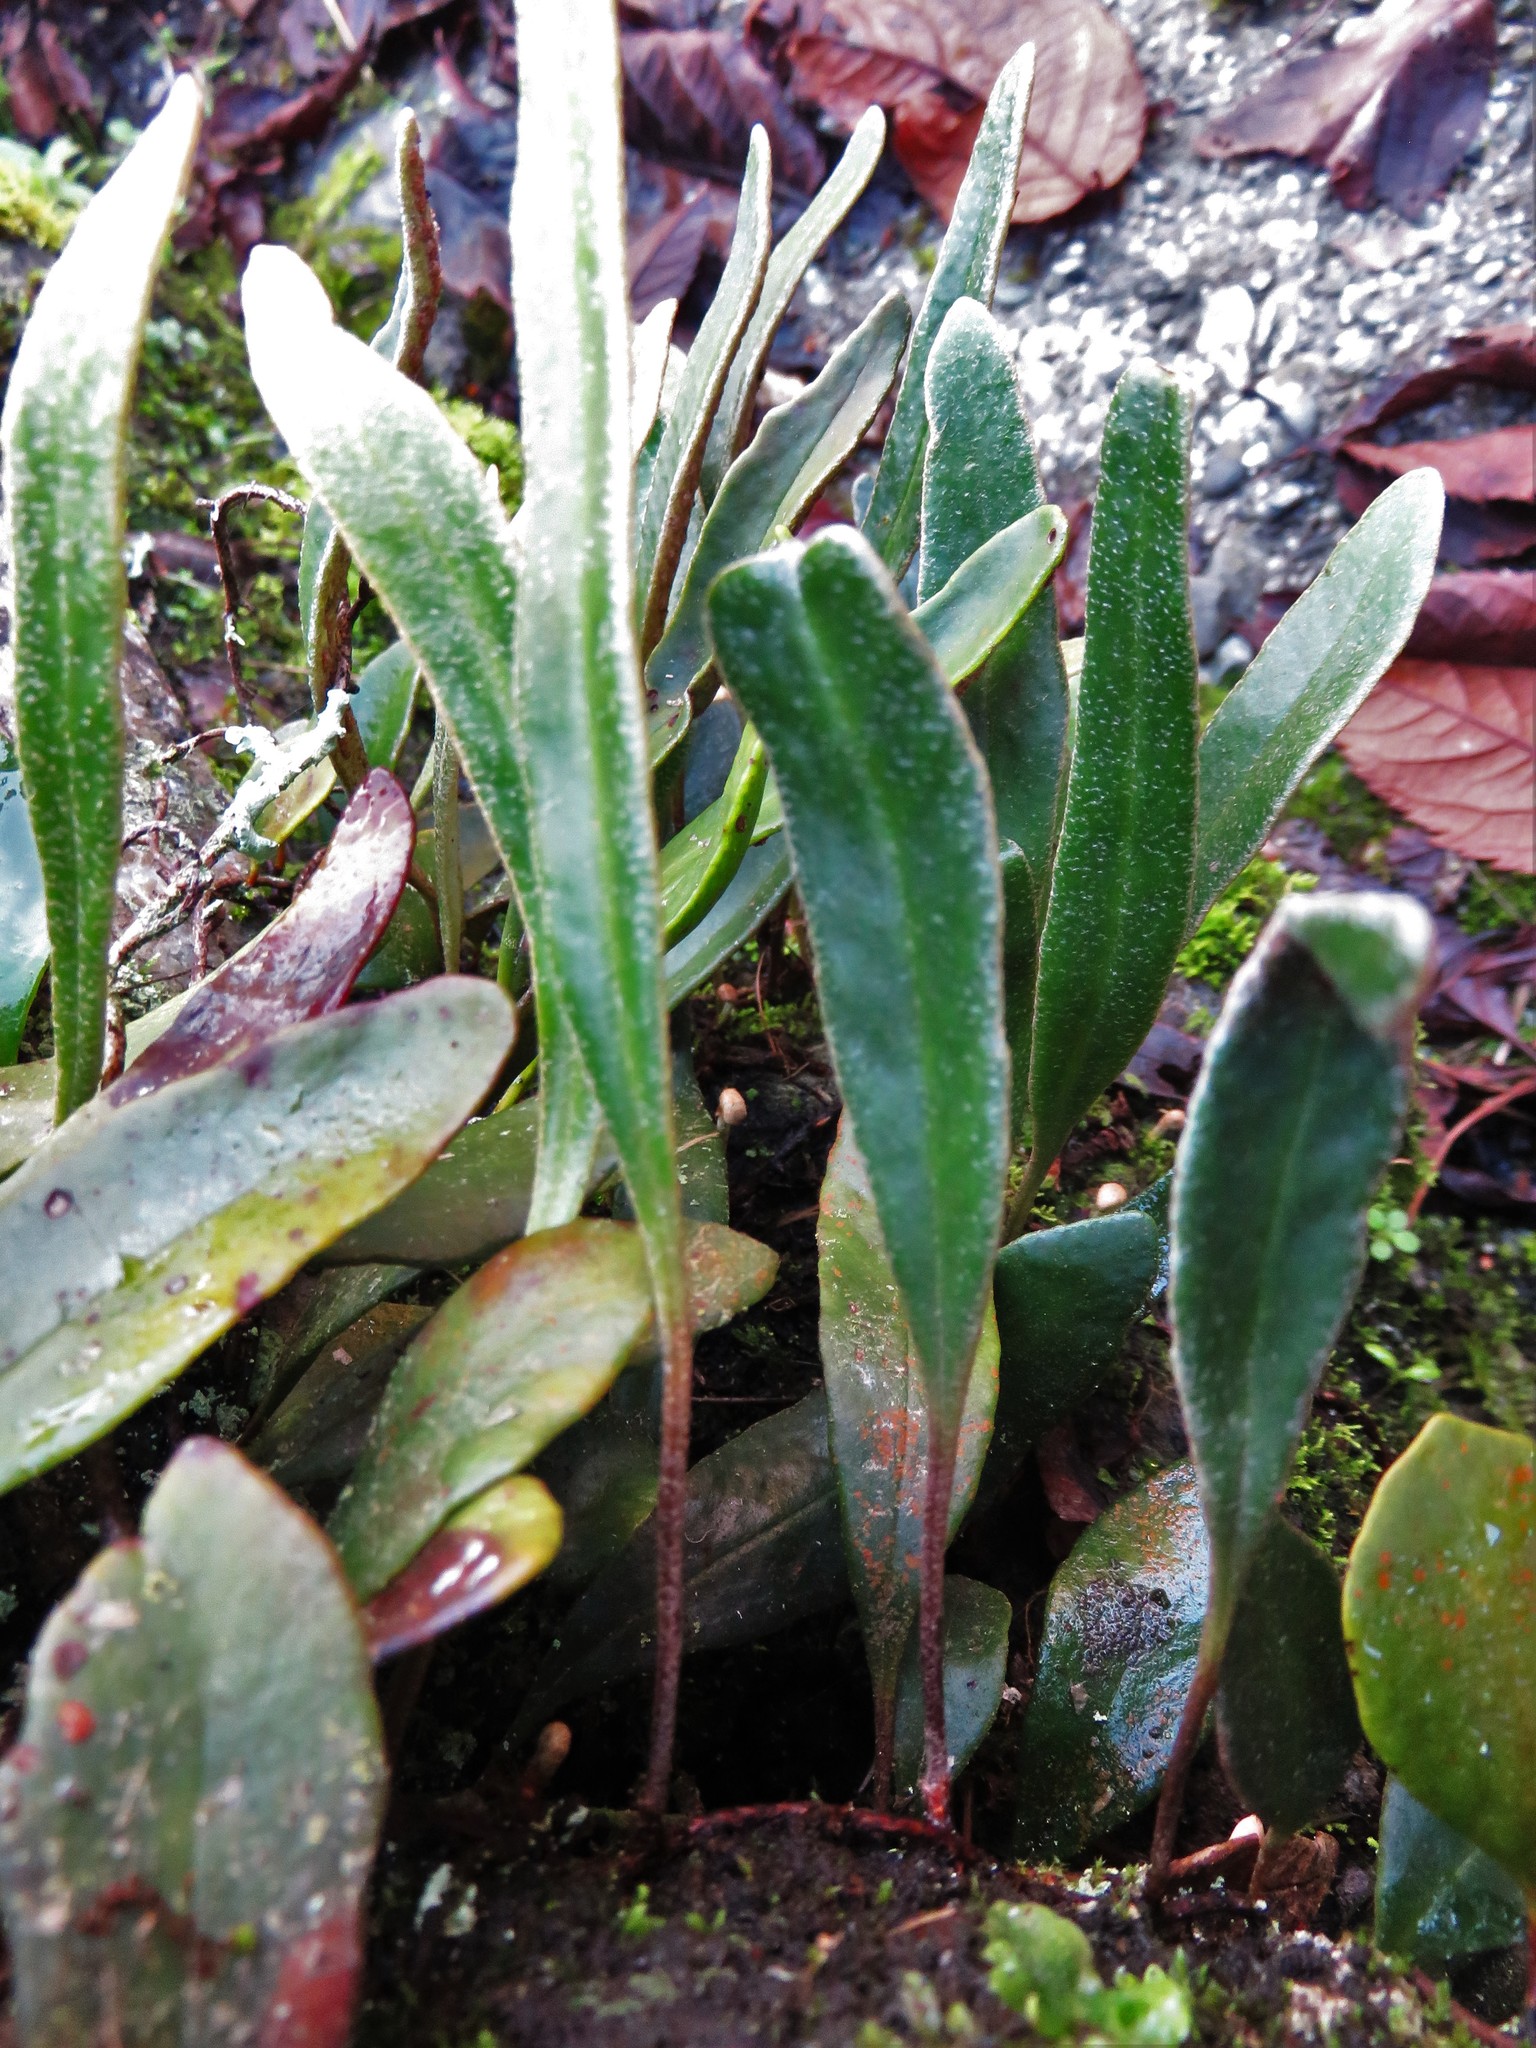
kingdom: Plantae
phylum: Tracheophyta
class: Polypodiopsida
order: Polypodiales
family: Polypodiaceae
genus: Pyrrosia
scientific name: Pyrrosia eleagnifolia
